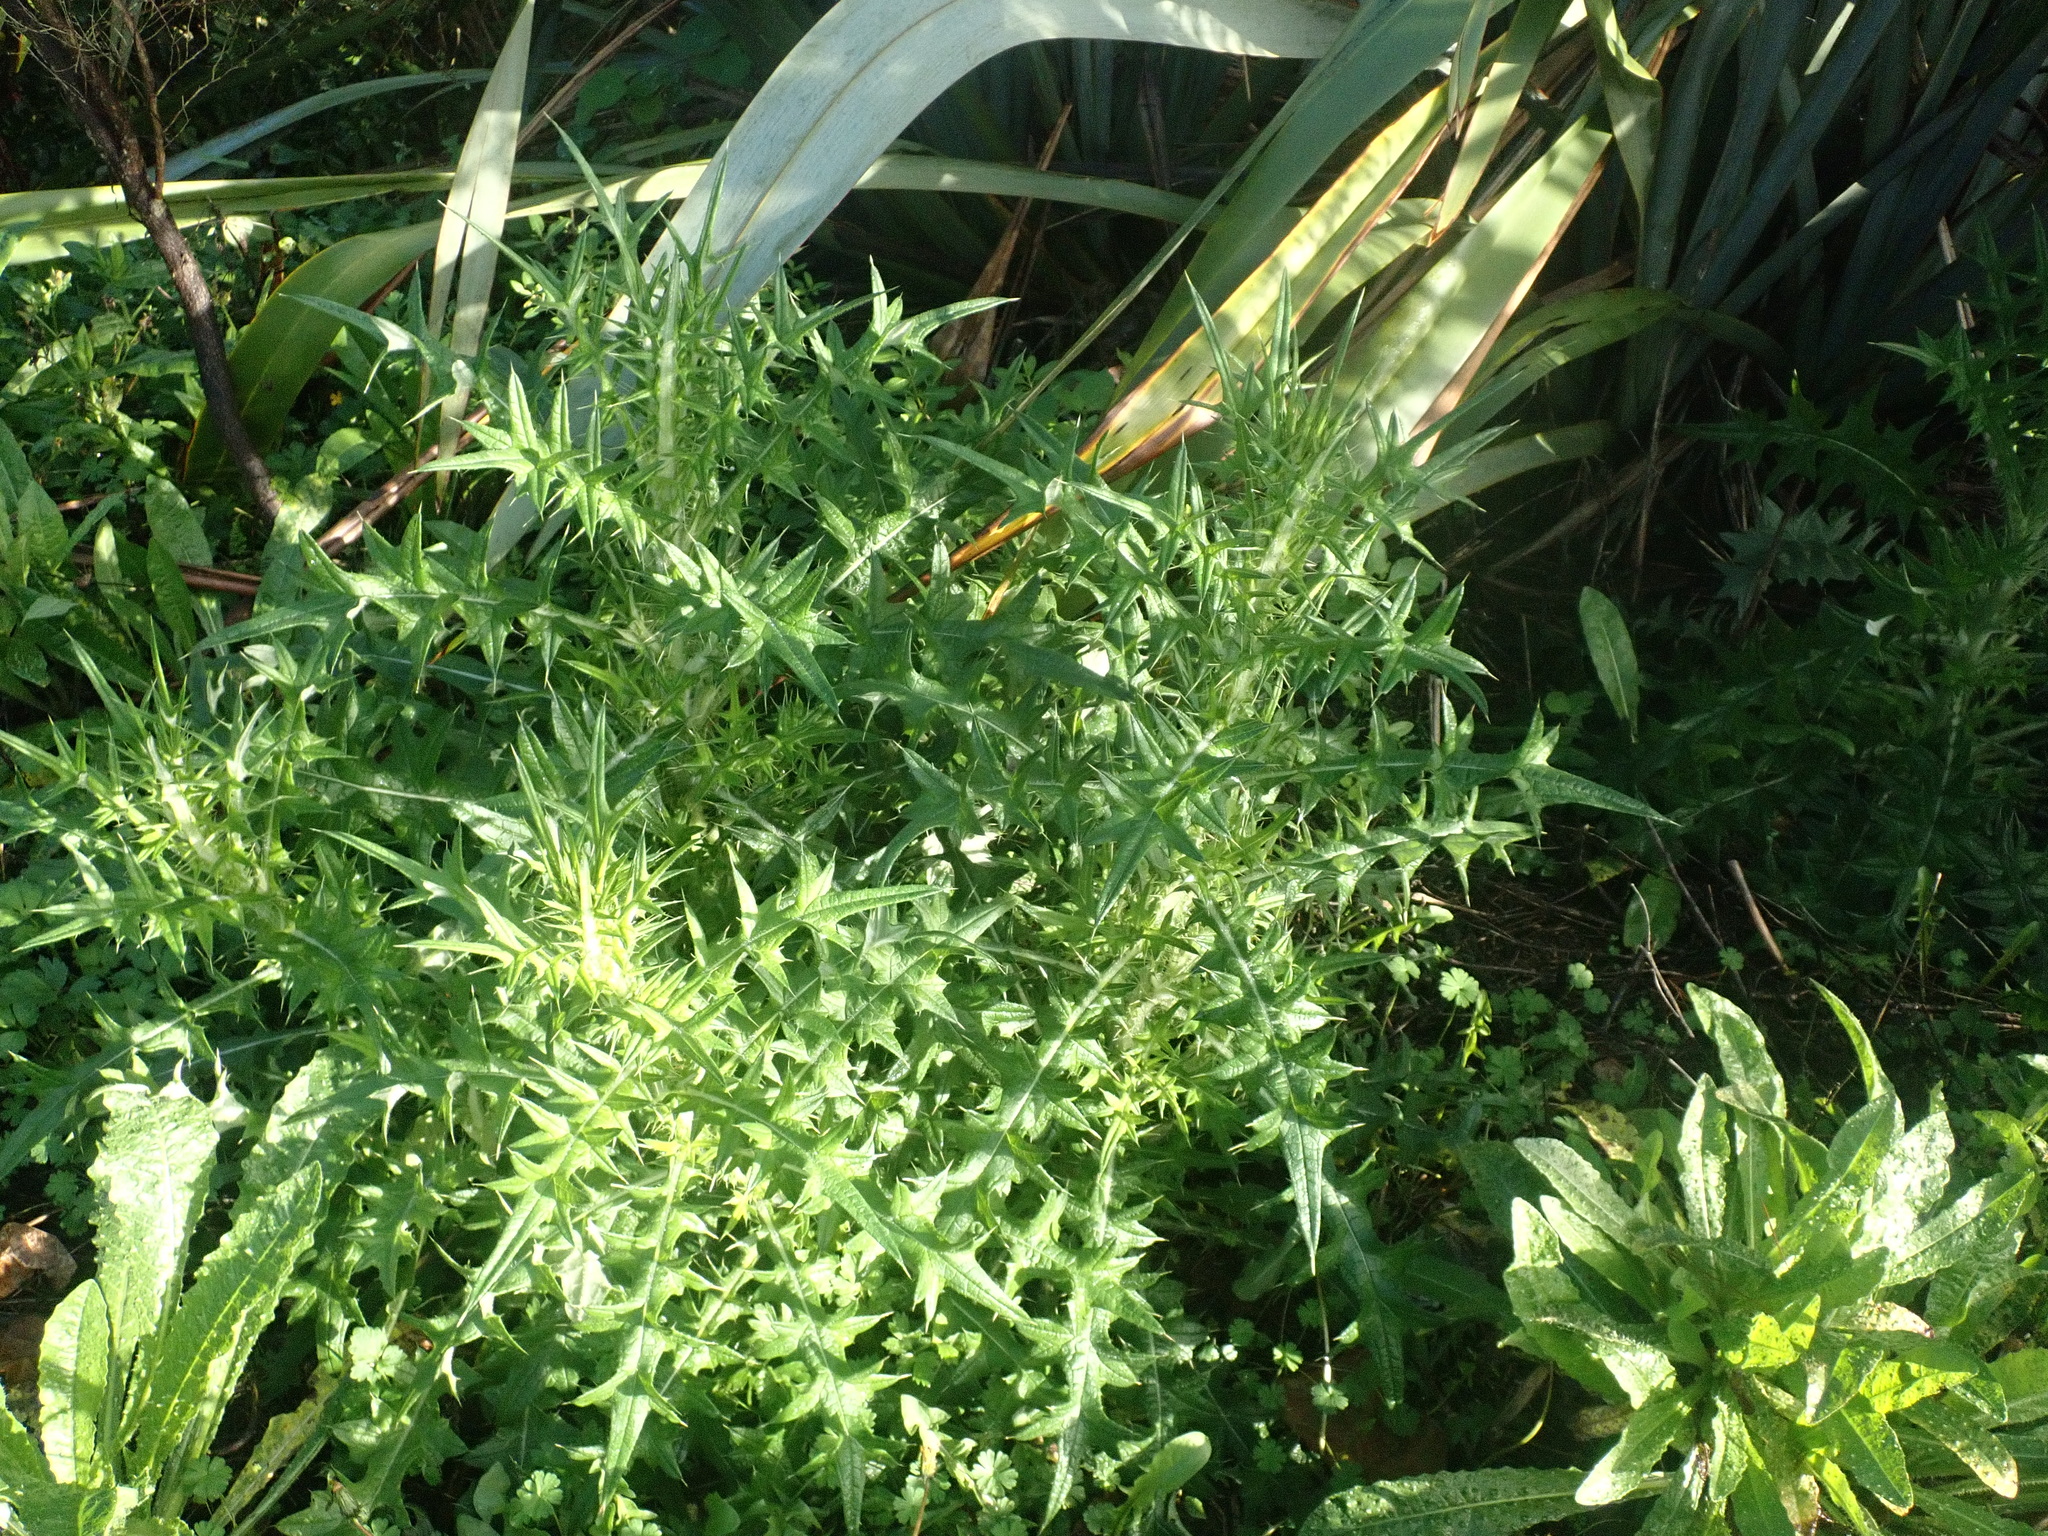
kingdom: Plantae
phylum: Tracheophyta
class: Magnoliopsida
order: Asterales
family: Asteraceae
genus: Cirsium
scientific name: Cirsium vulgare
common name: Bull thistle
